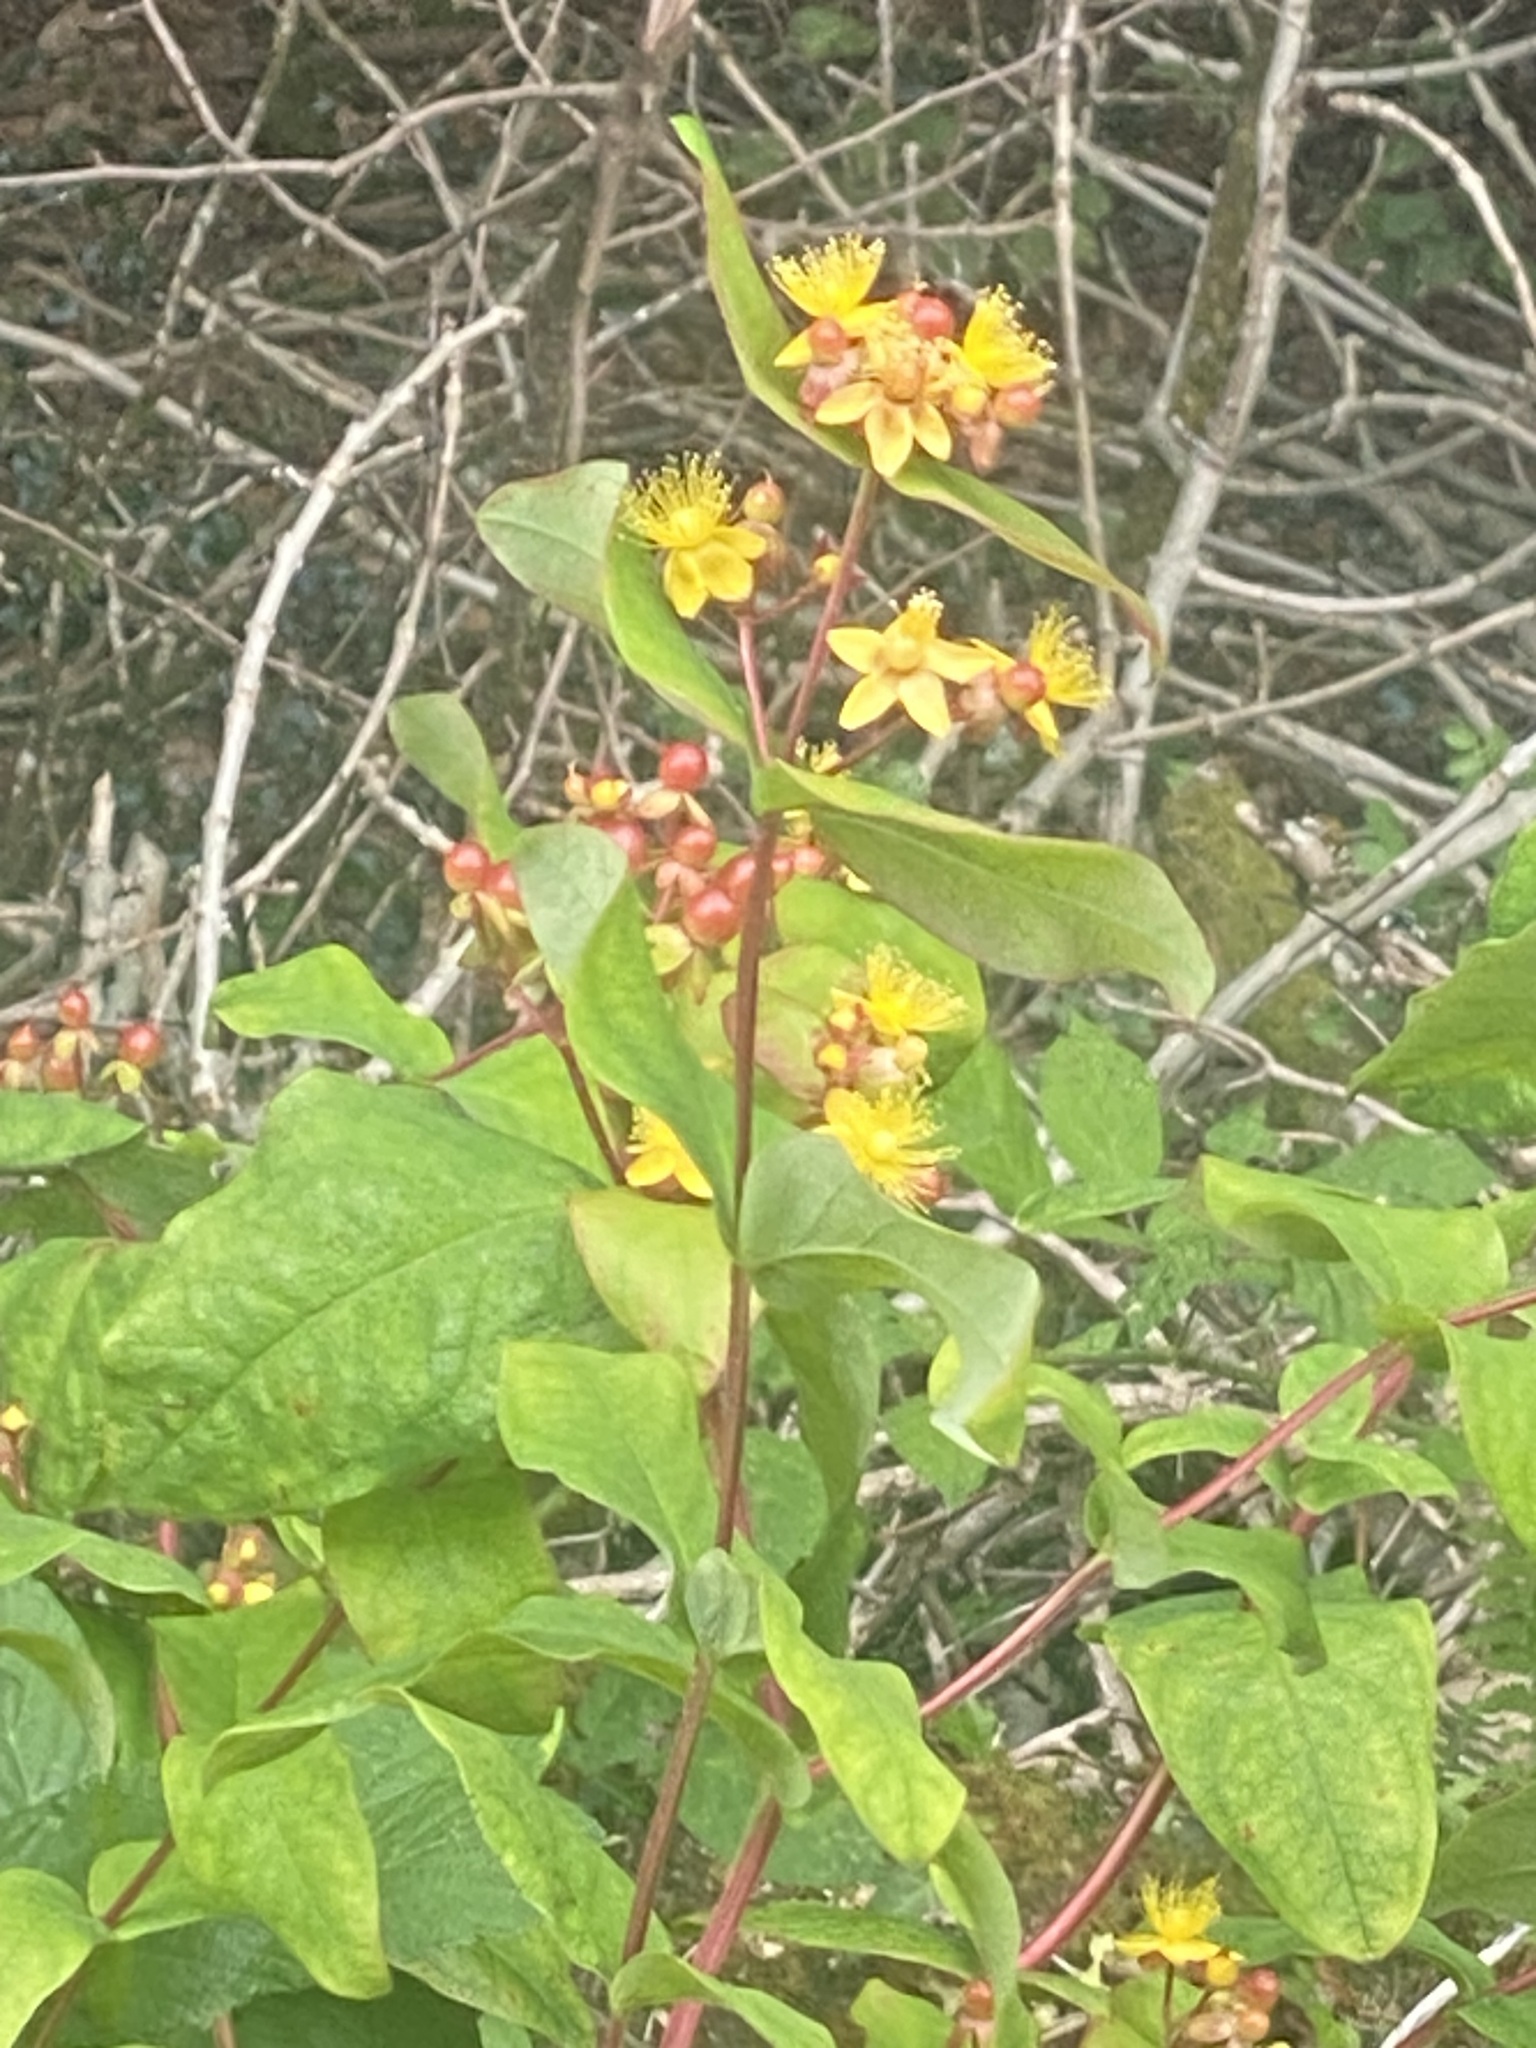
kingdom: Plantae
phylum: Tracheophyta
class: Magnoliopsida
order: Malpighiales
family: Hypericaceae
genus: Hypericum
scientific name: Hypericum androsaemum
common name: Sweet-amber
